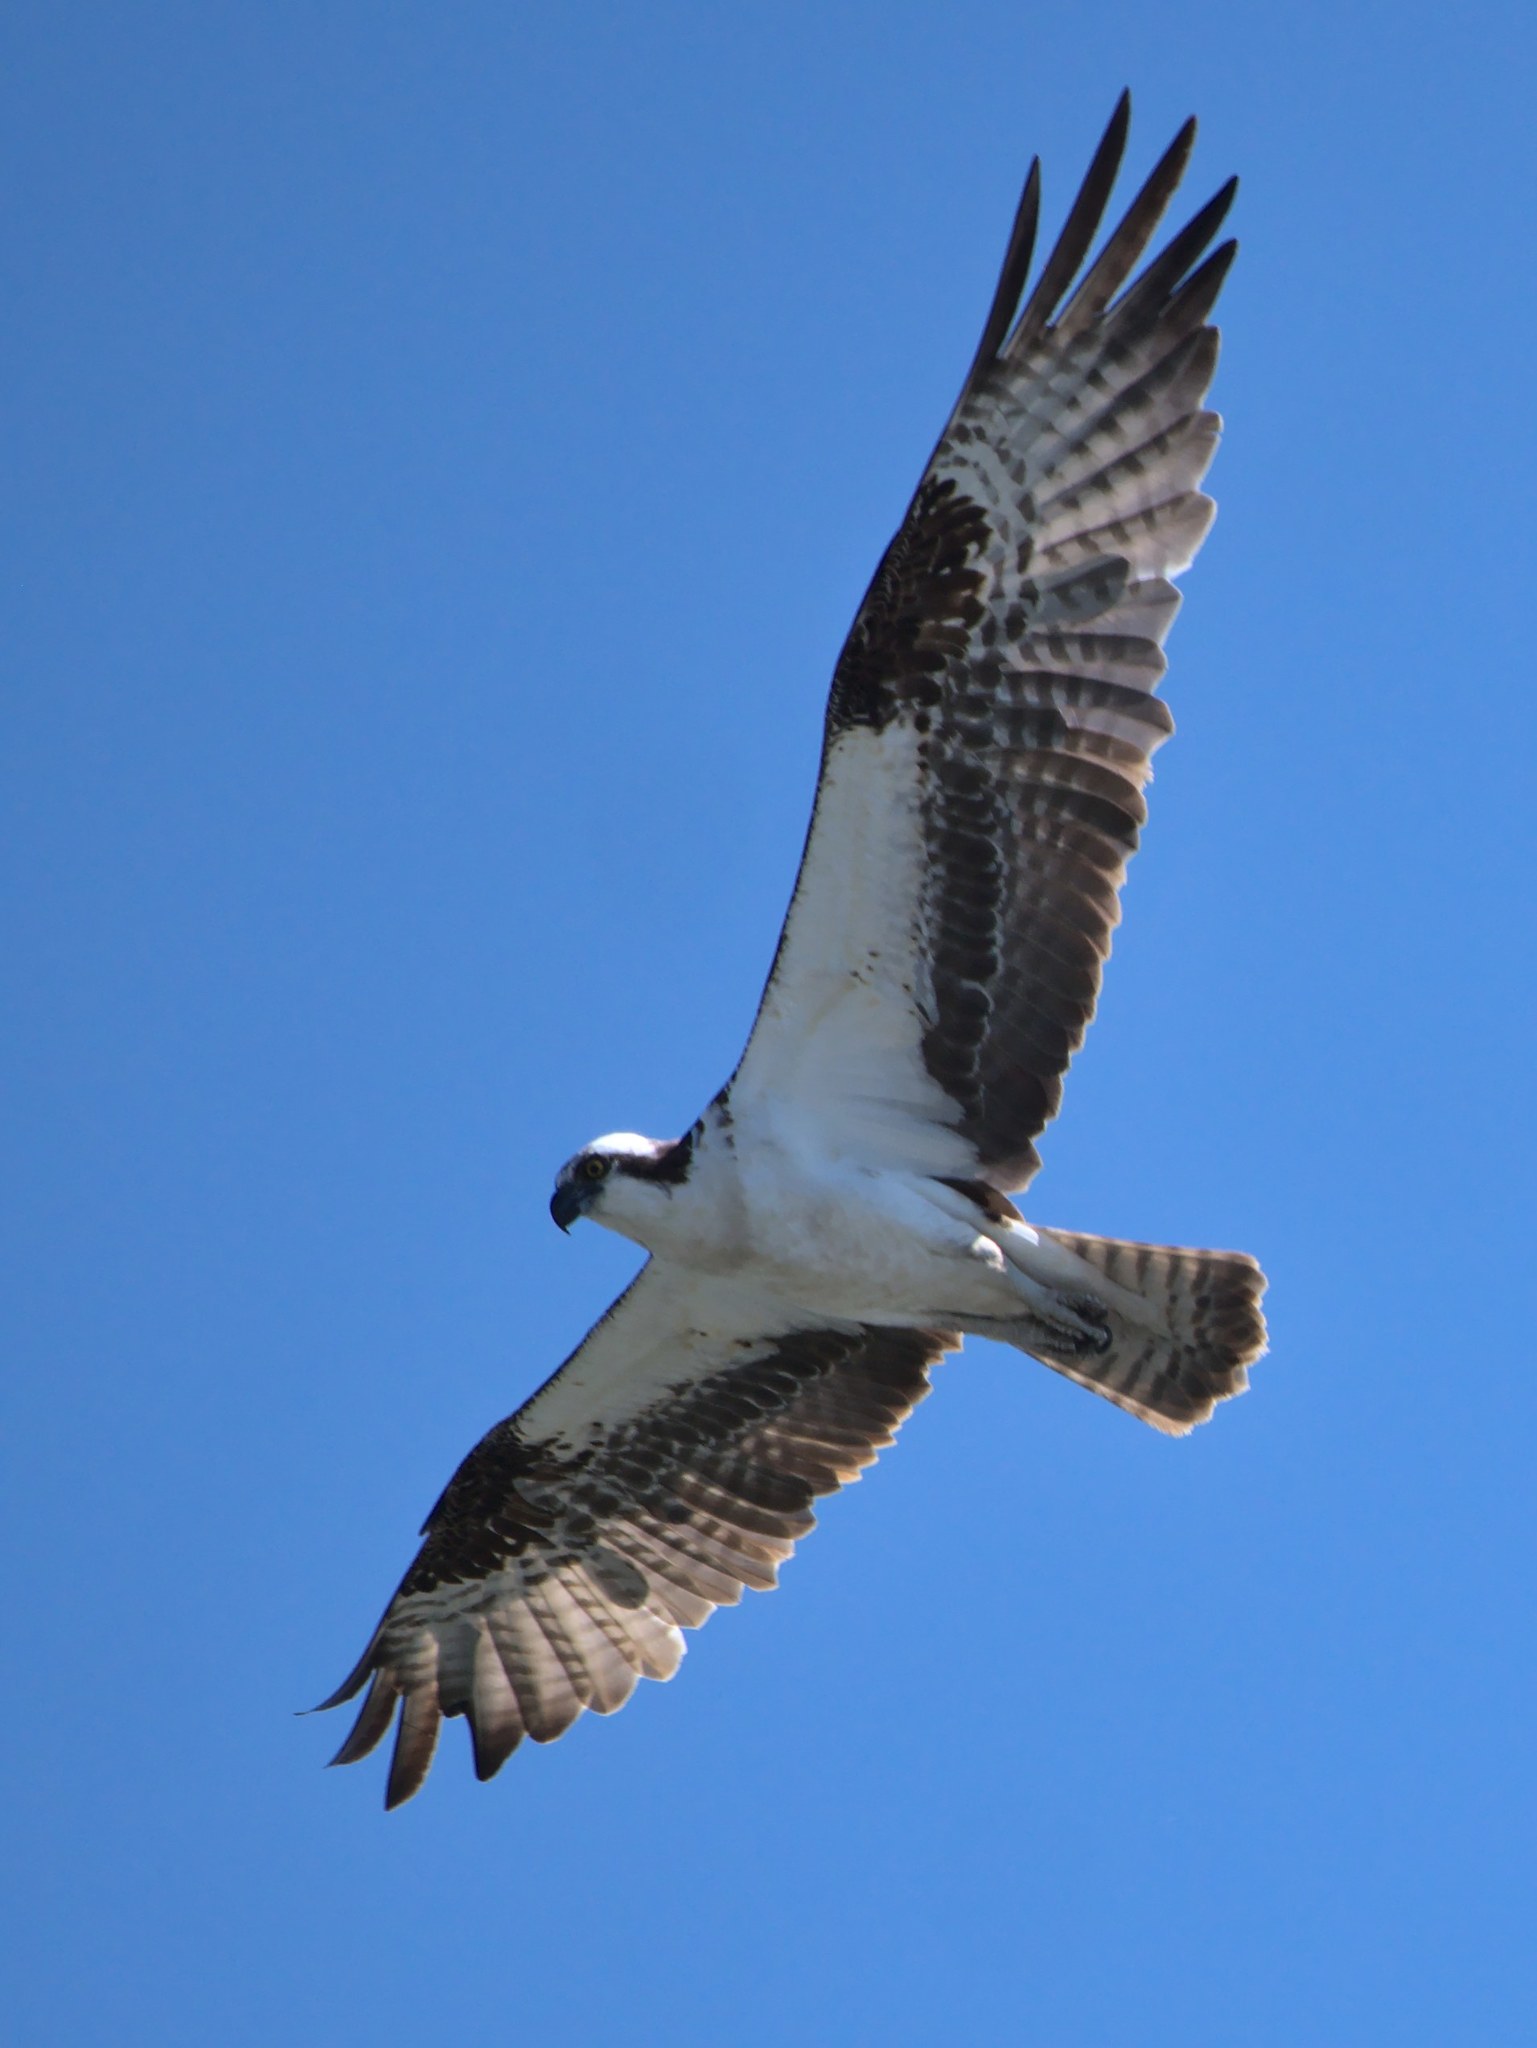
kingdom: Animalia
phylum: Chordata
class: Aves
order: Accipitriformes
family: Pandionidae
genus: Pandion
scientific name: Pandion haliaetus
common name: Osprey
